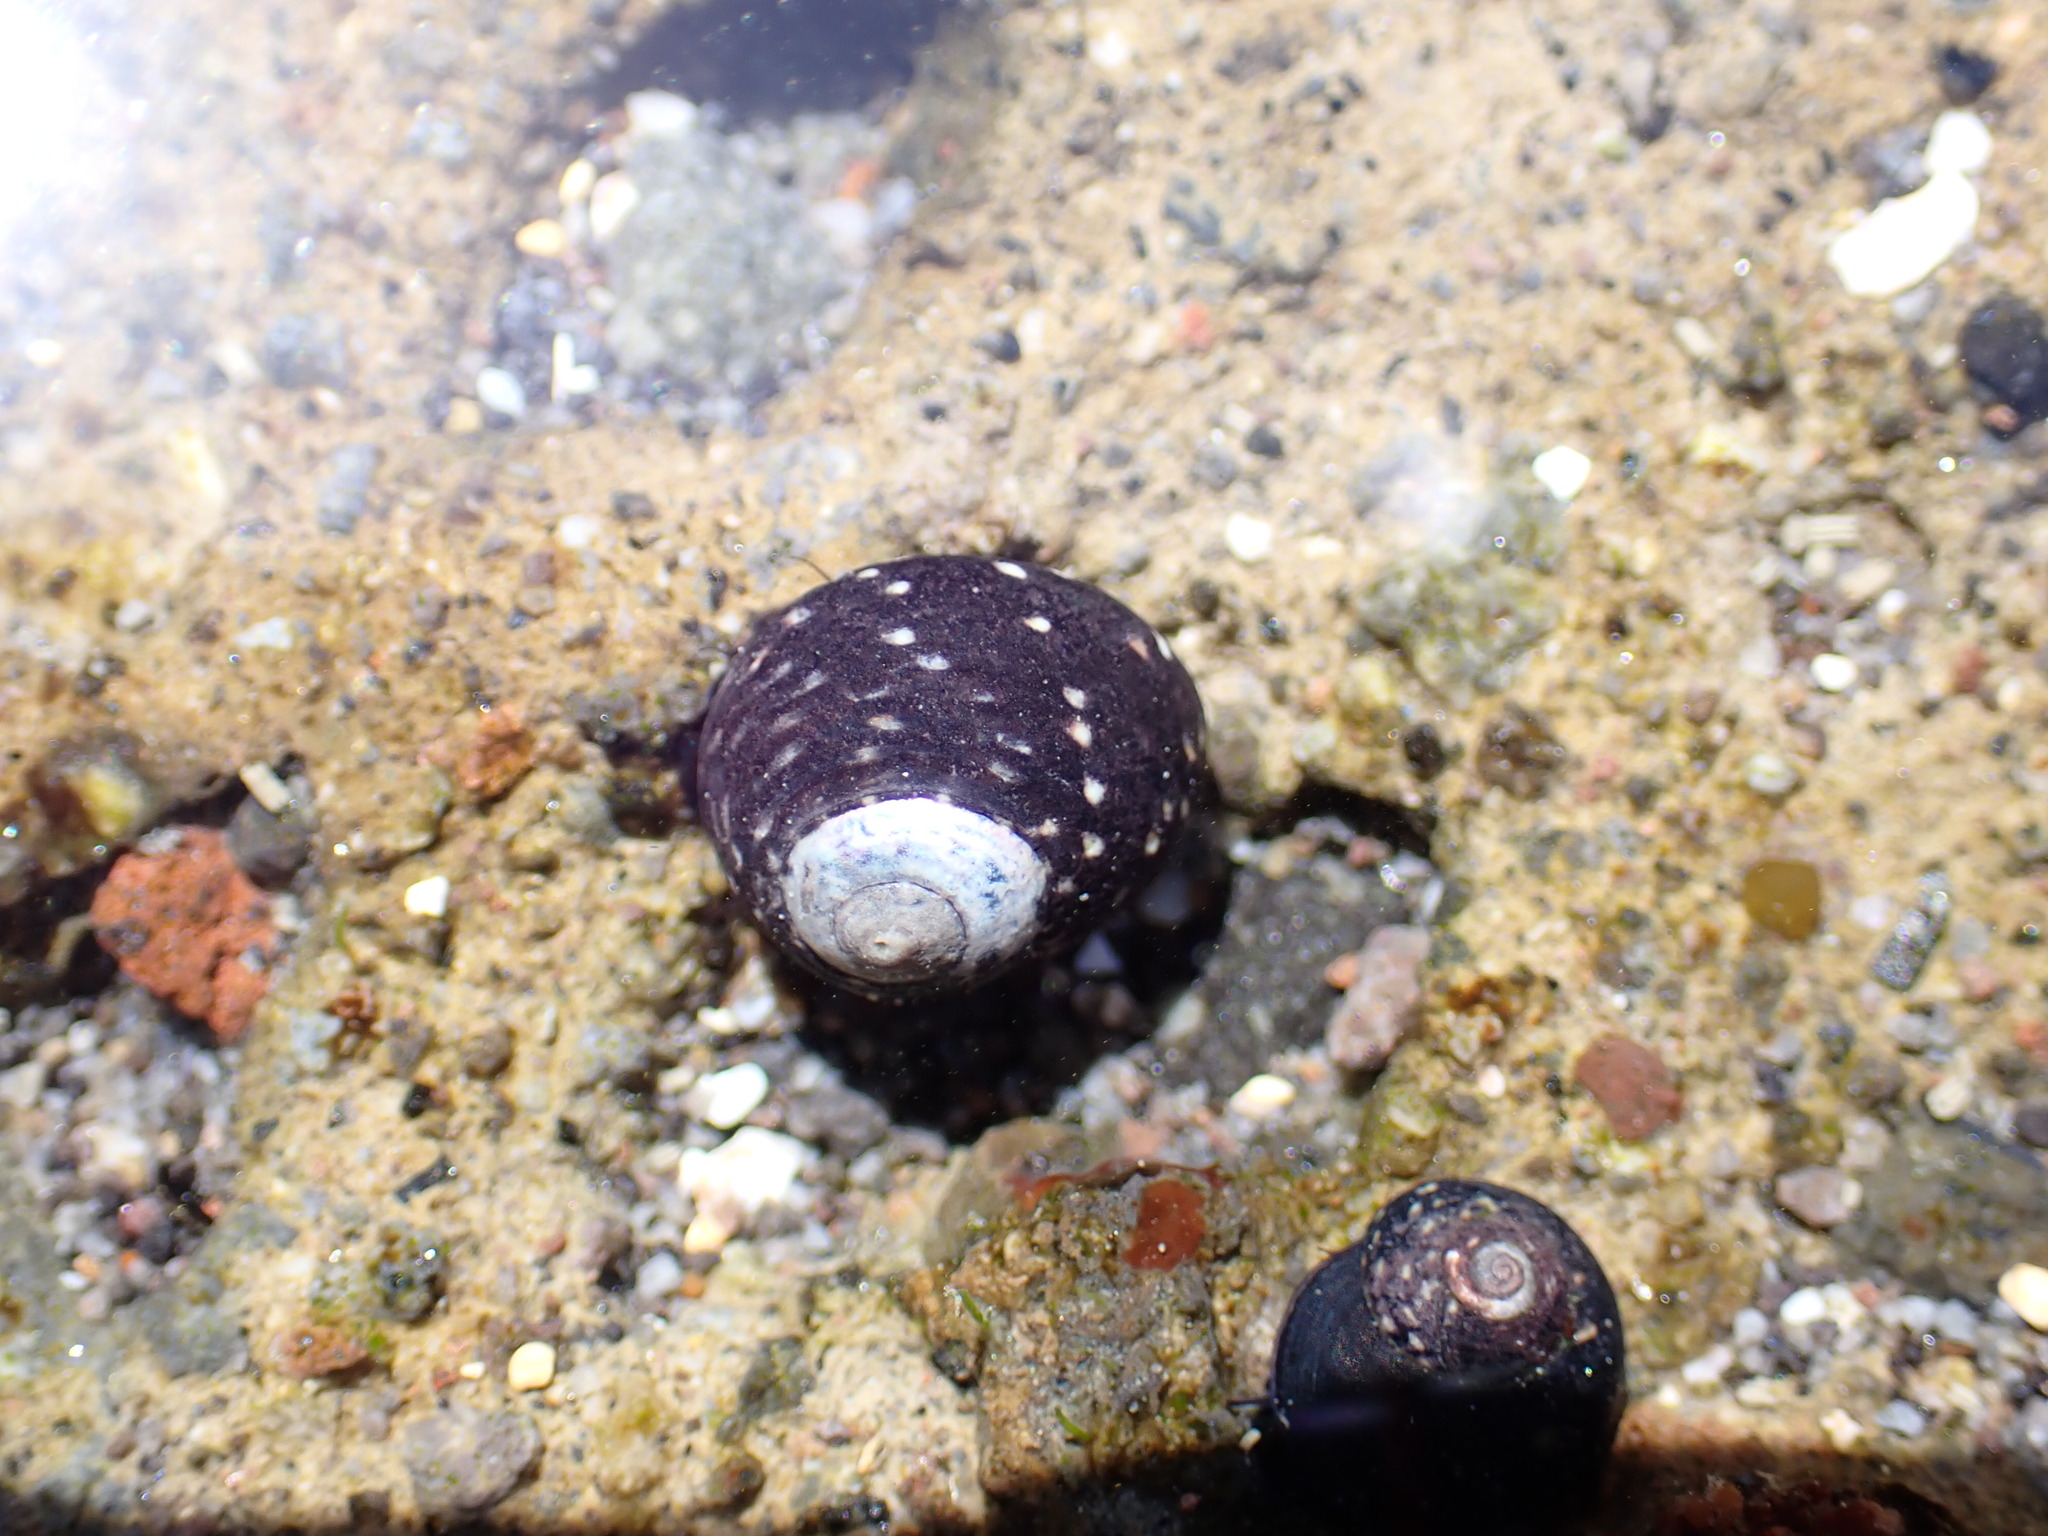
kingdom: Animalia
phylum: Mollusca
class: Gastropoda
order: Trochida
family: Trochidae
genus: Diloma
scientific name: Diloma aridum
